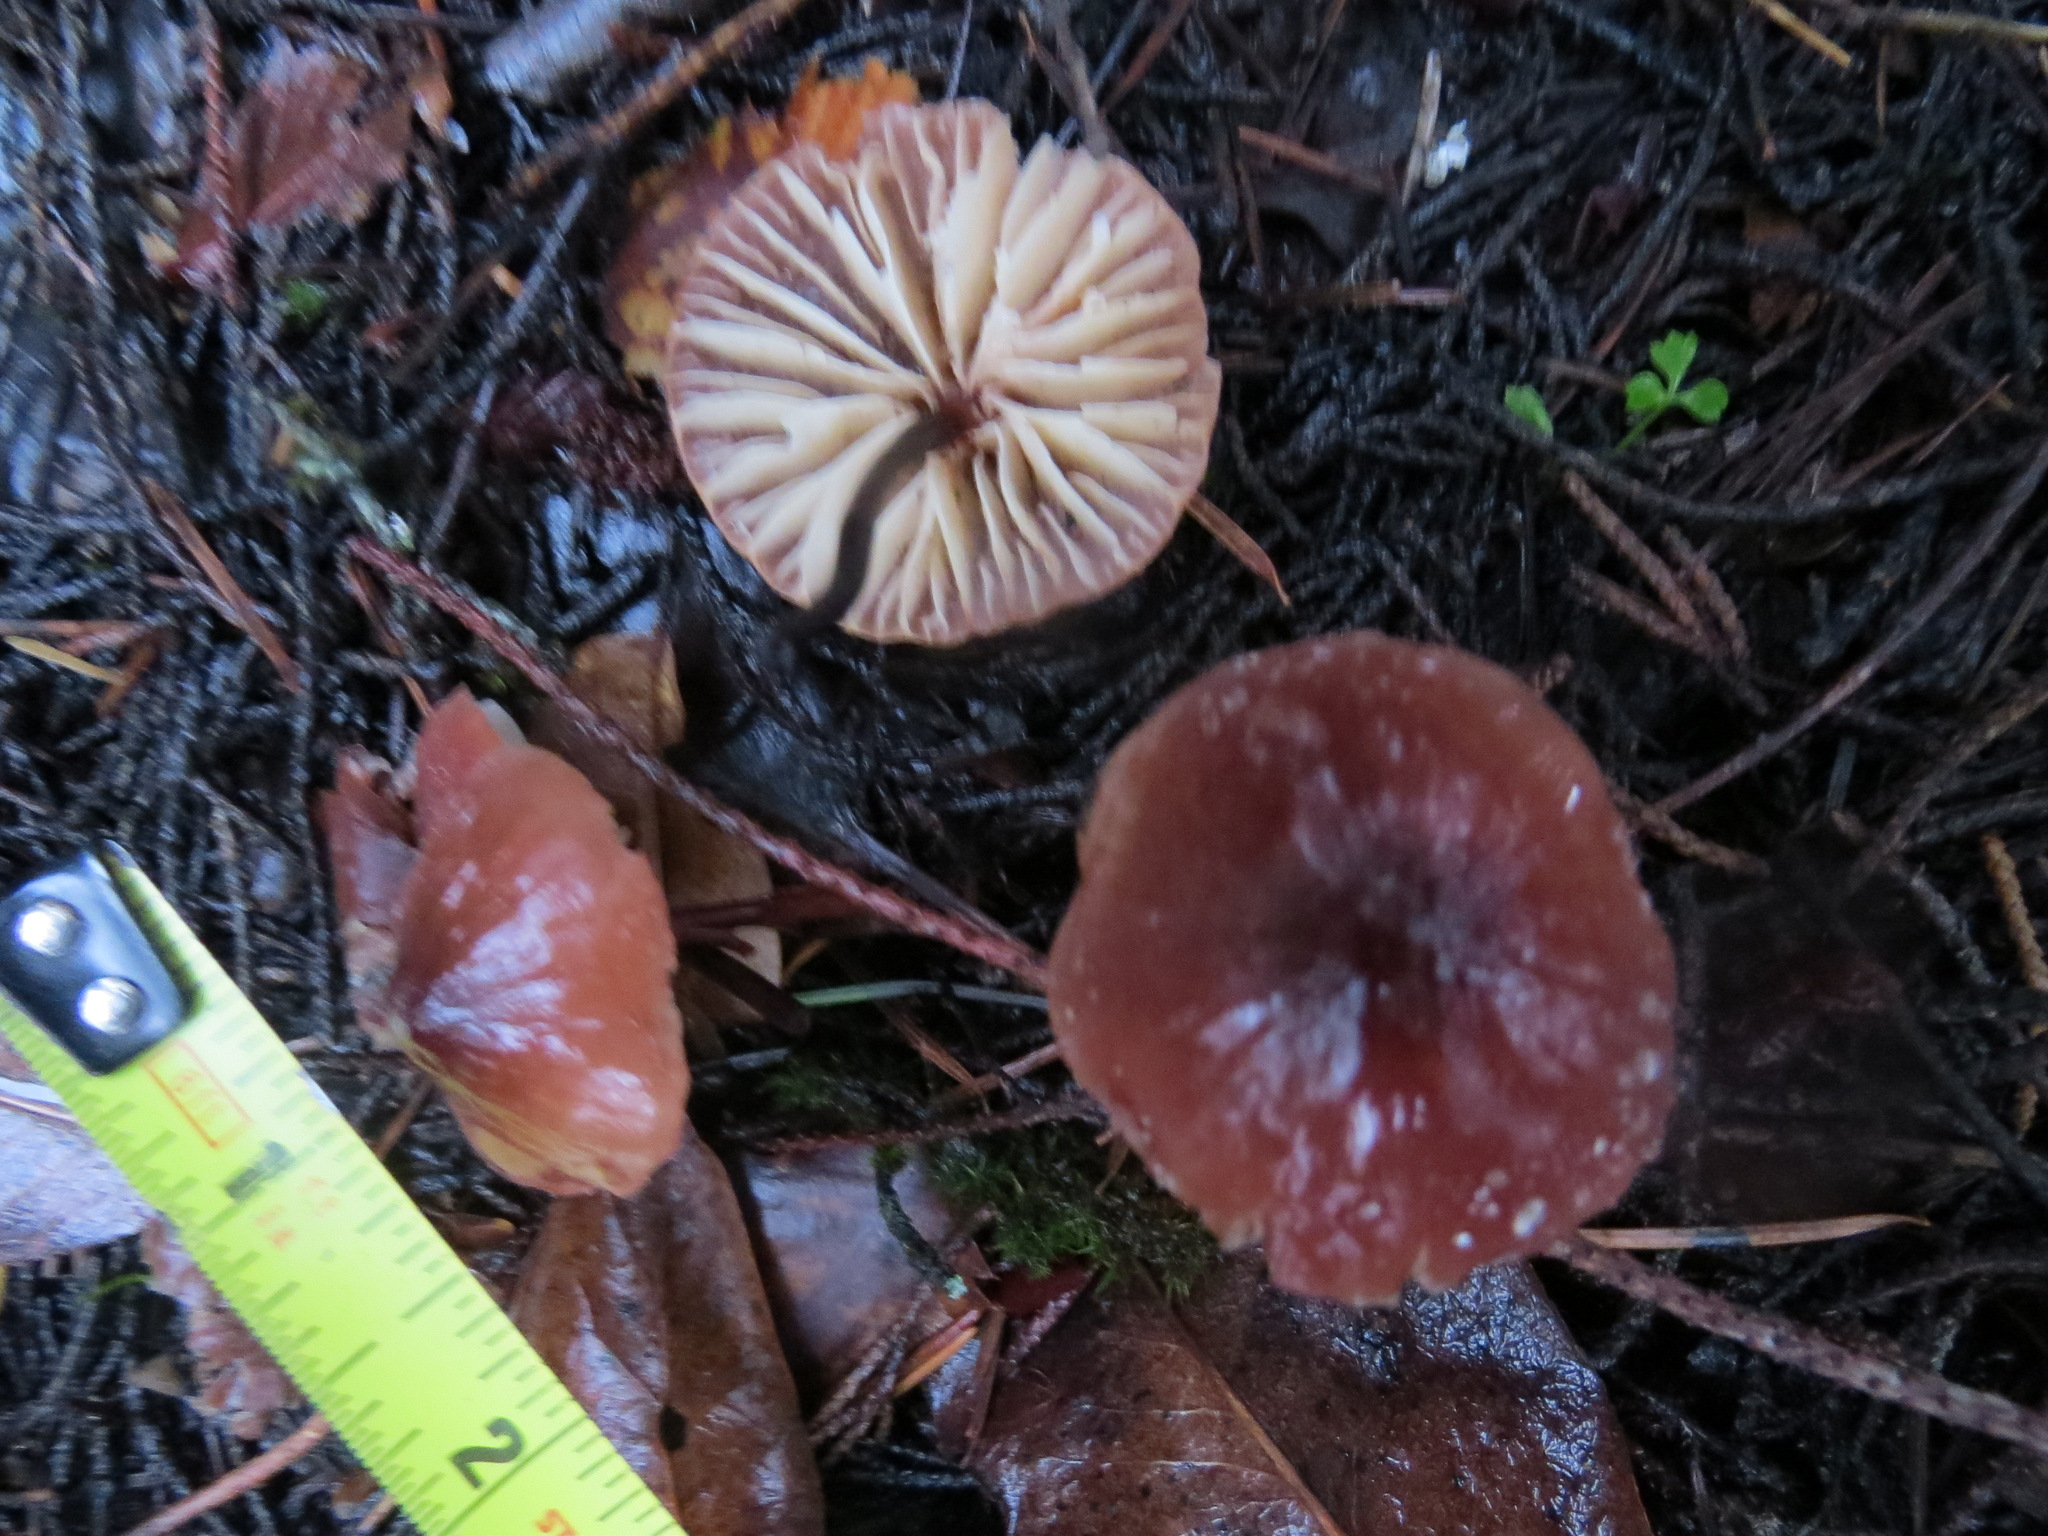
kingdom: Fungi
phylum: Basidiomycota
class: Agaricomycetes
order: Agaricales
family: Marasmiaceae
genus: Marasmius
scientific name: Marasmius plicatulus
